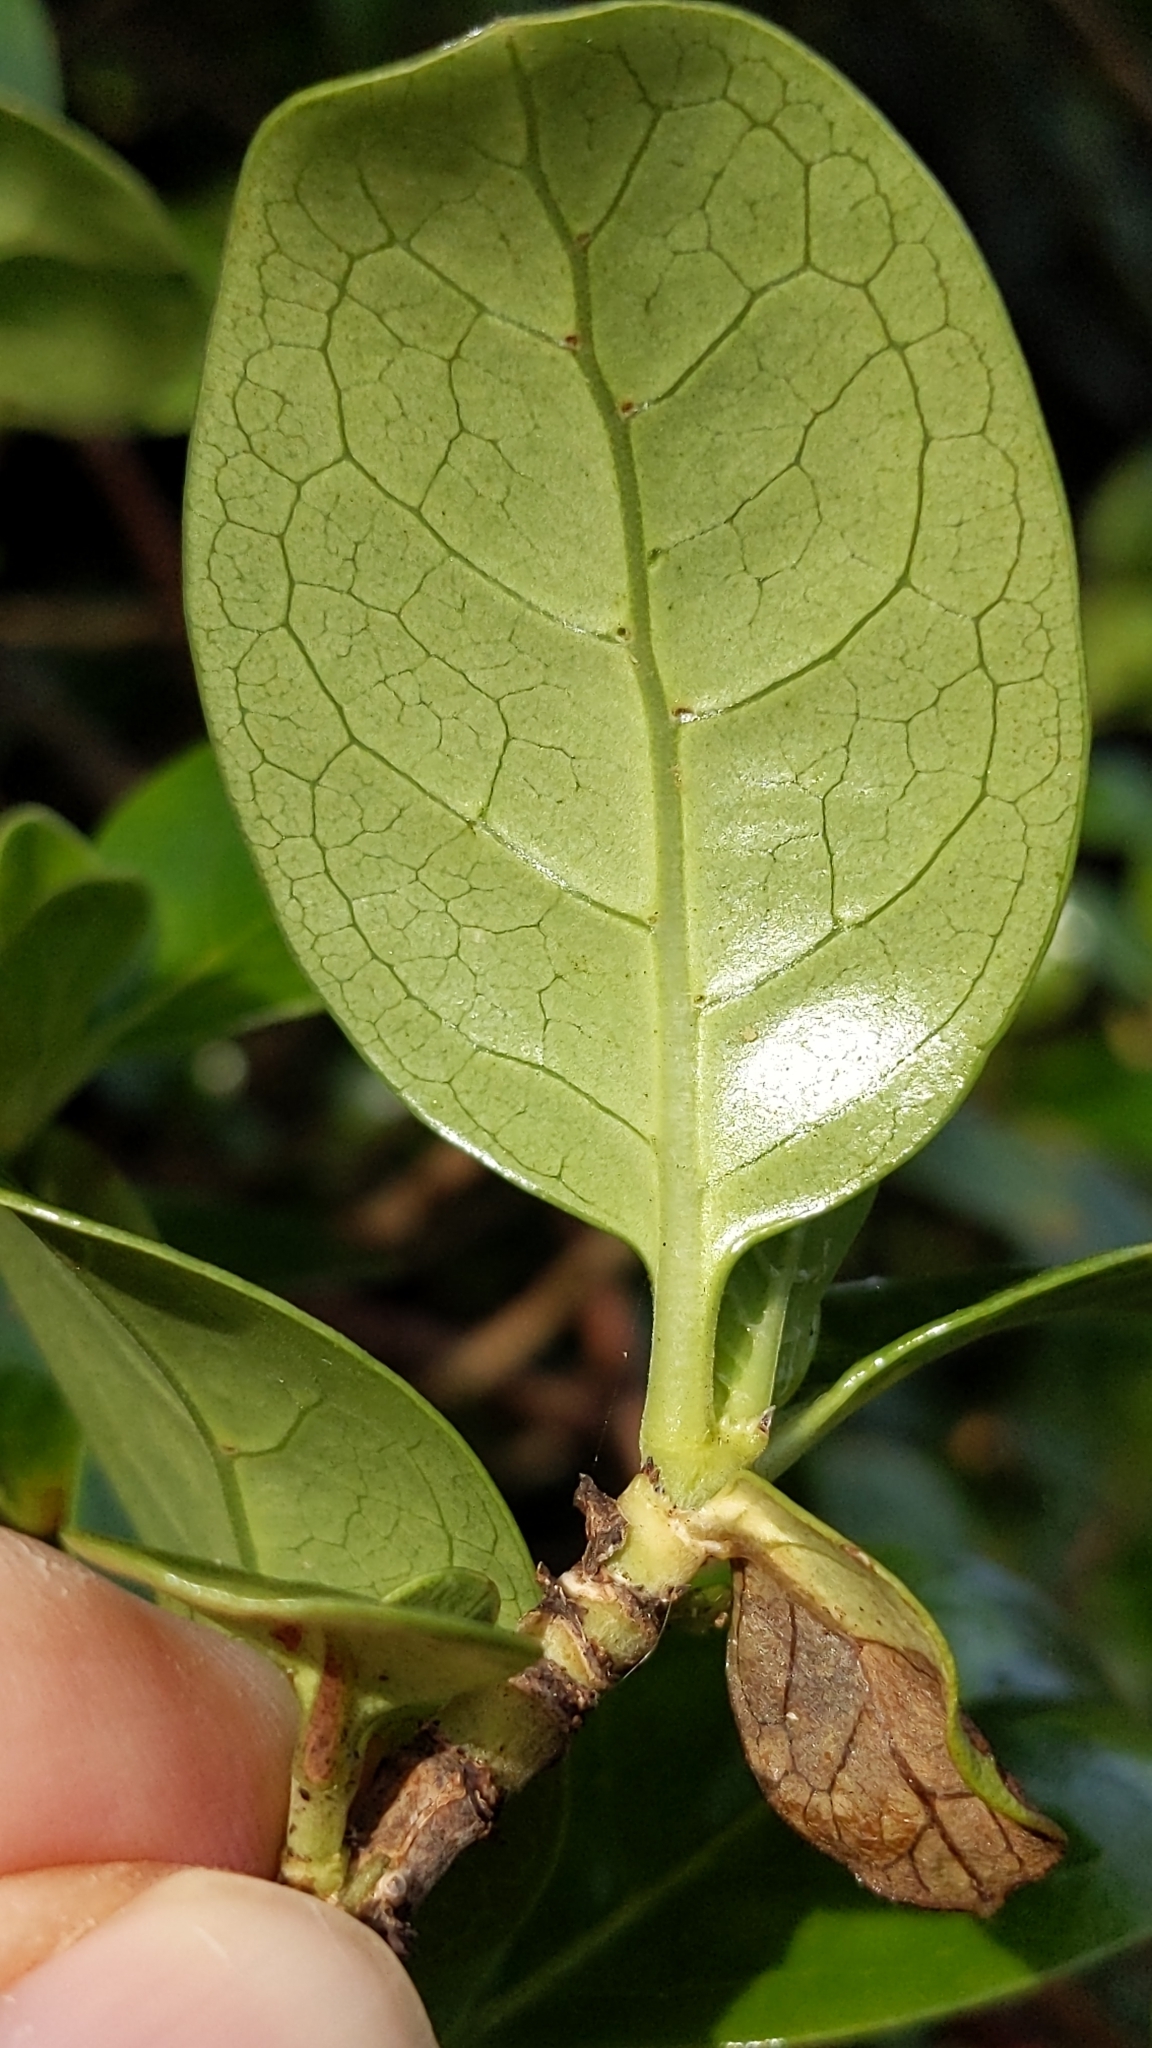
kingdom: Plantae
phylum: Tracheophyta
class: Magnoliopsida
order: Gentianales
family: Rubiaceae
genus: Coprosma
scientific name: Coprosma repens
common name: Tree bedstraw
